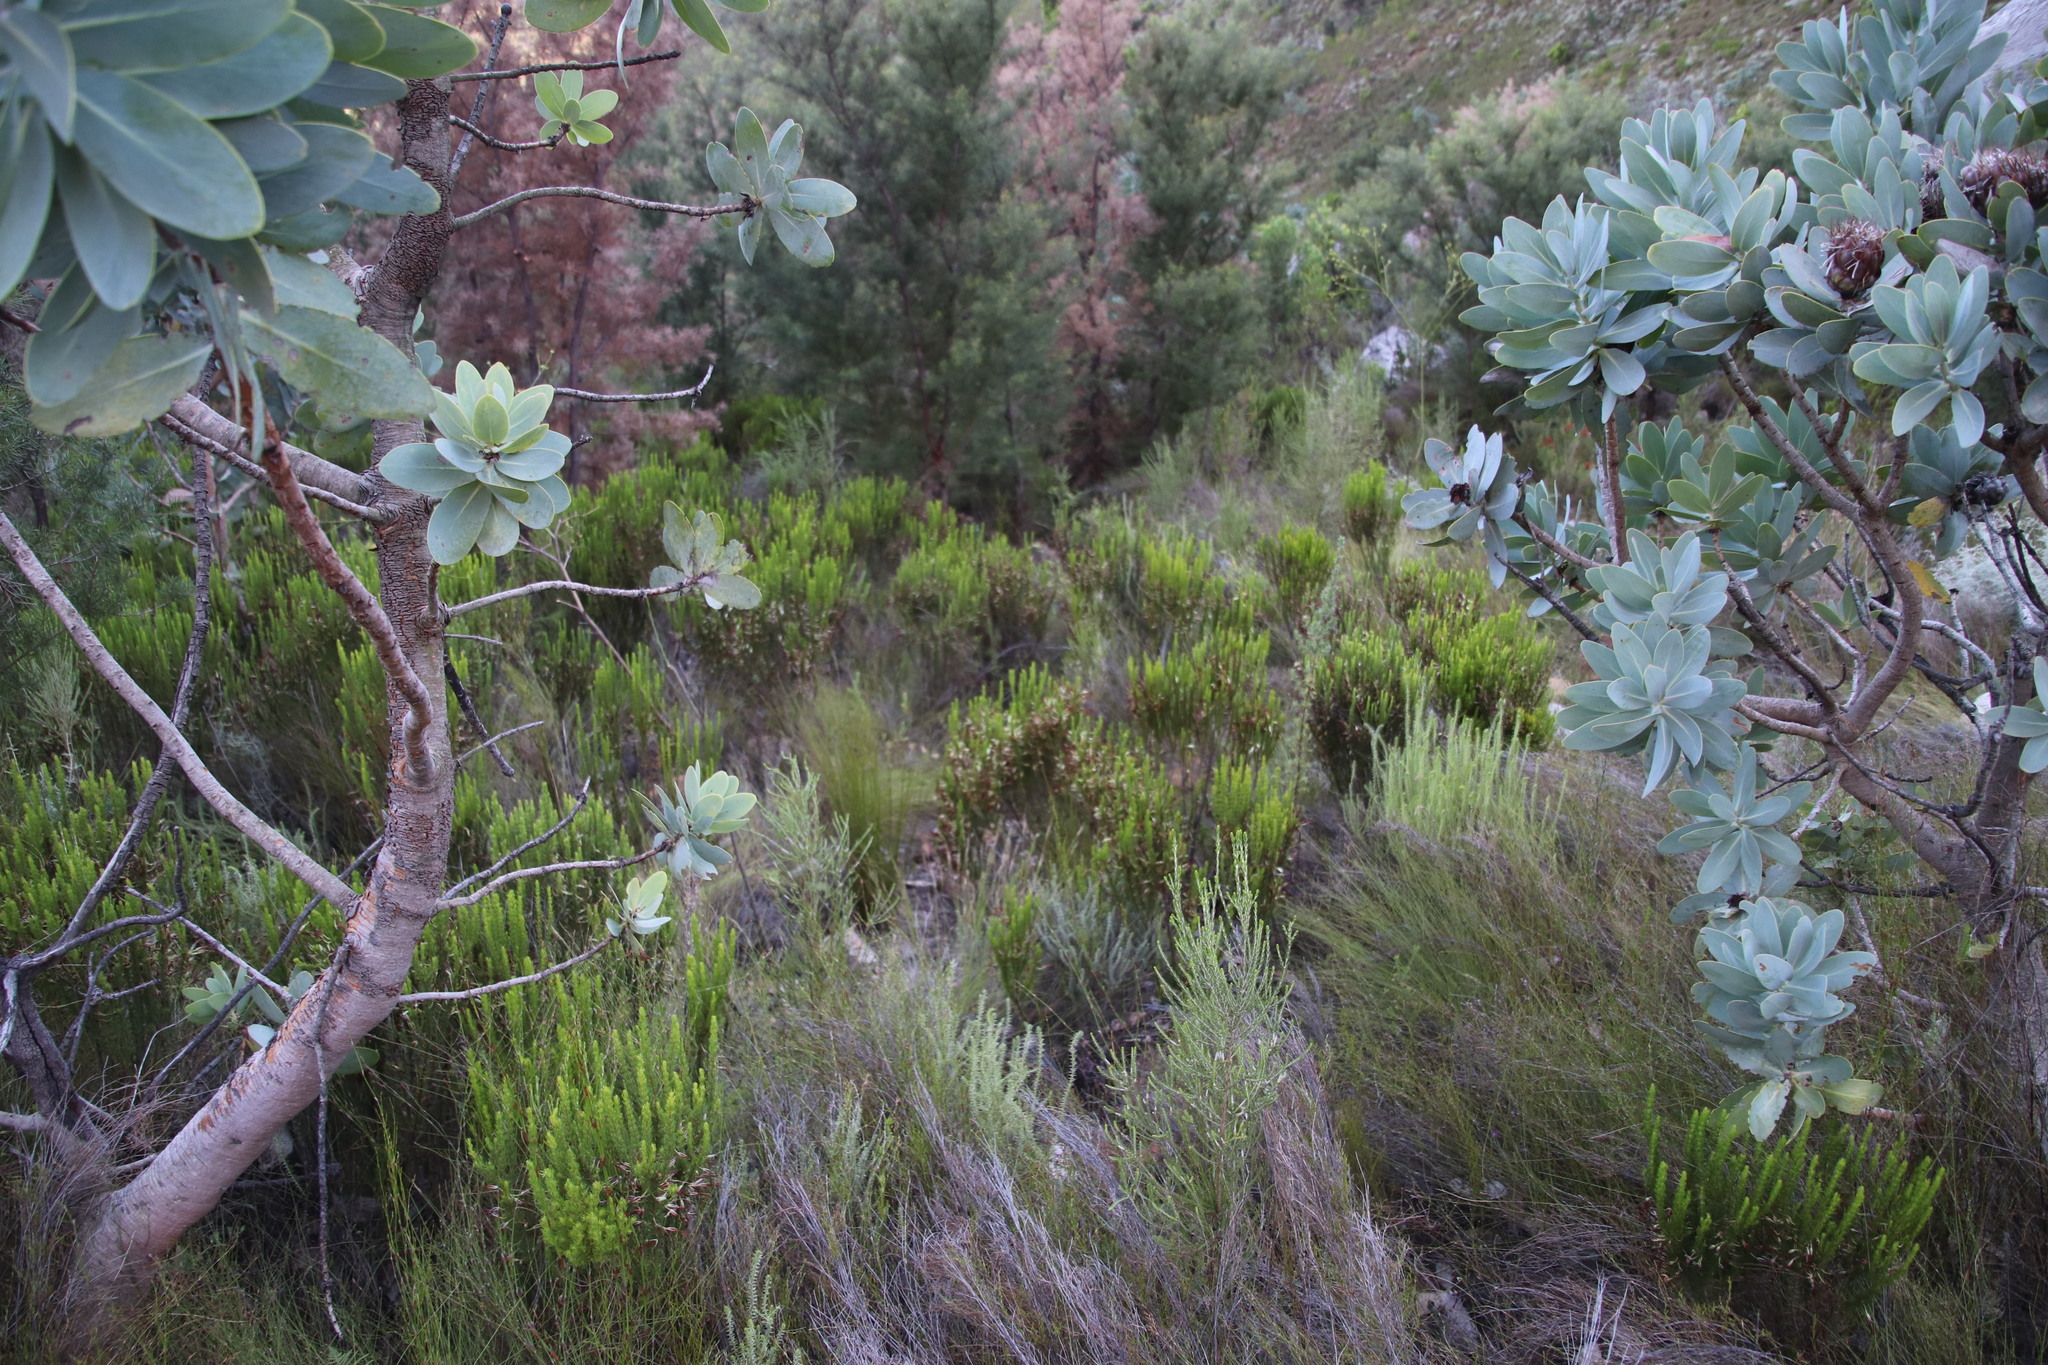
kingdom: Plantae
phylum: Tracheophyta
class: Magnoliopsida
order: Ericales
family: Ericaceae
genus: Erica
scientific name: Erica plukenetii
